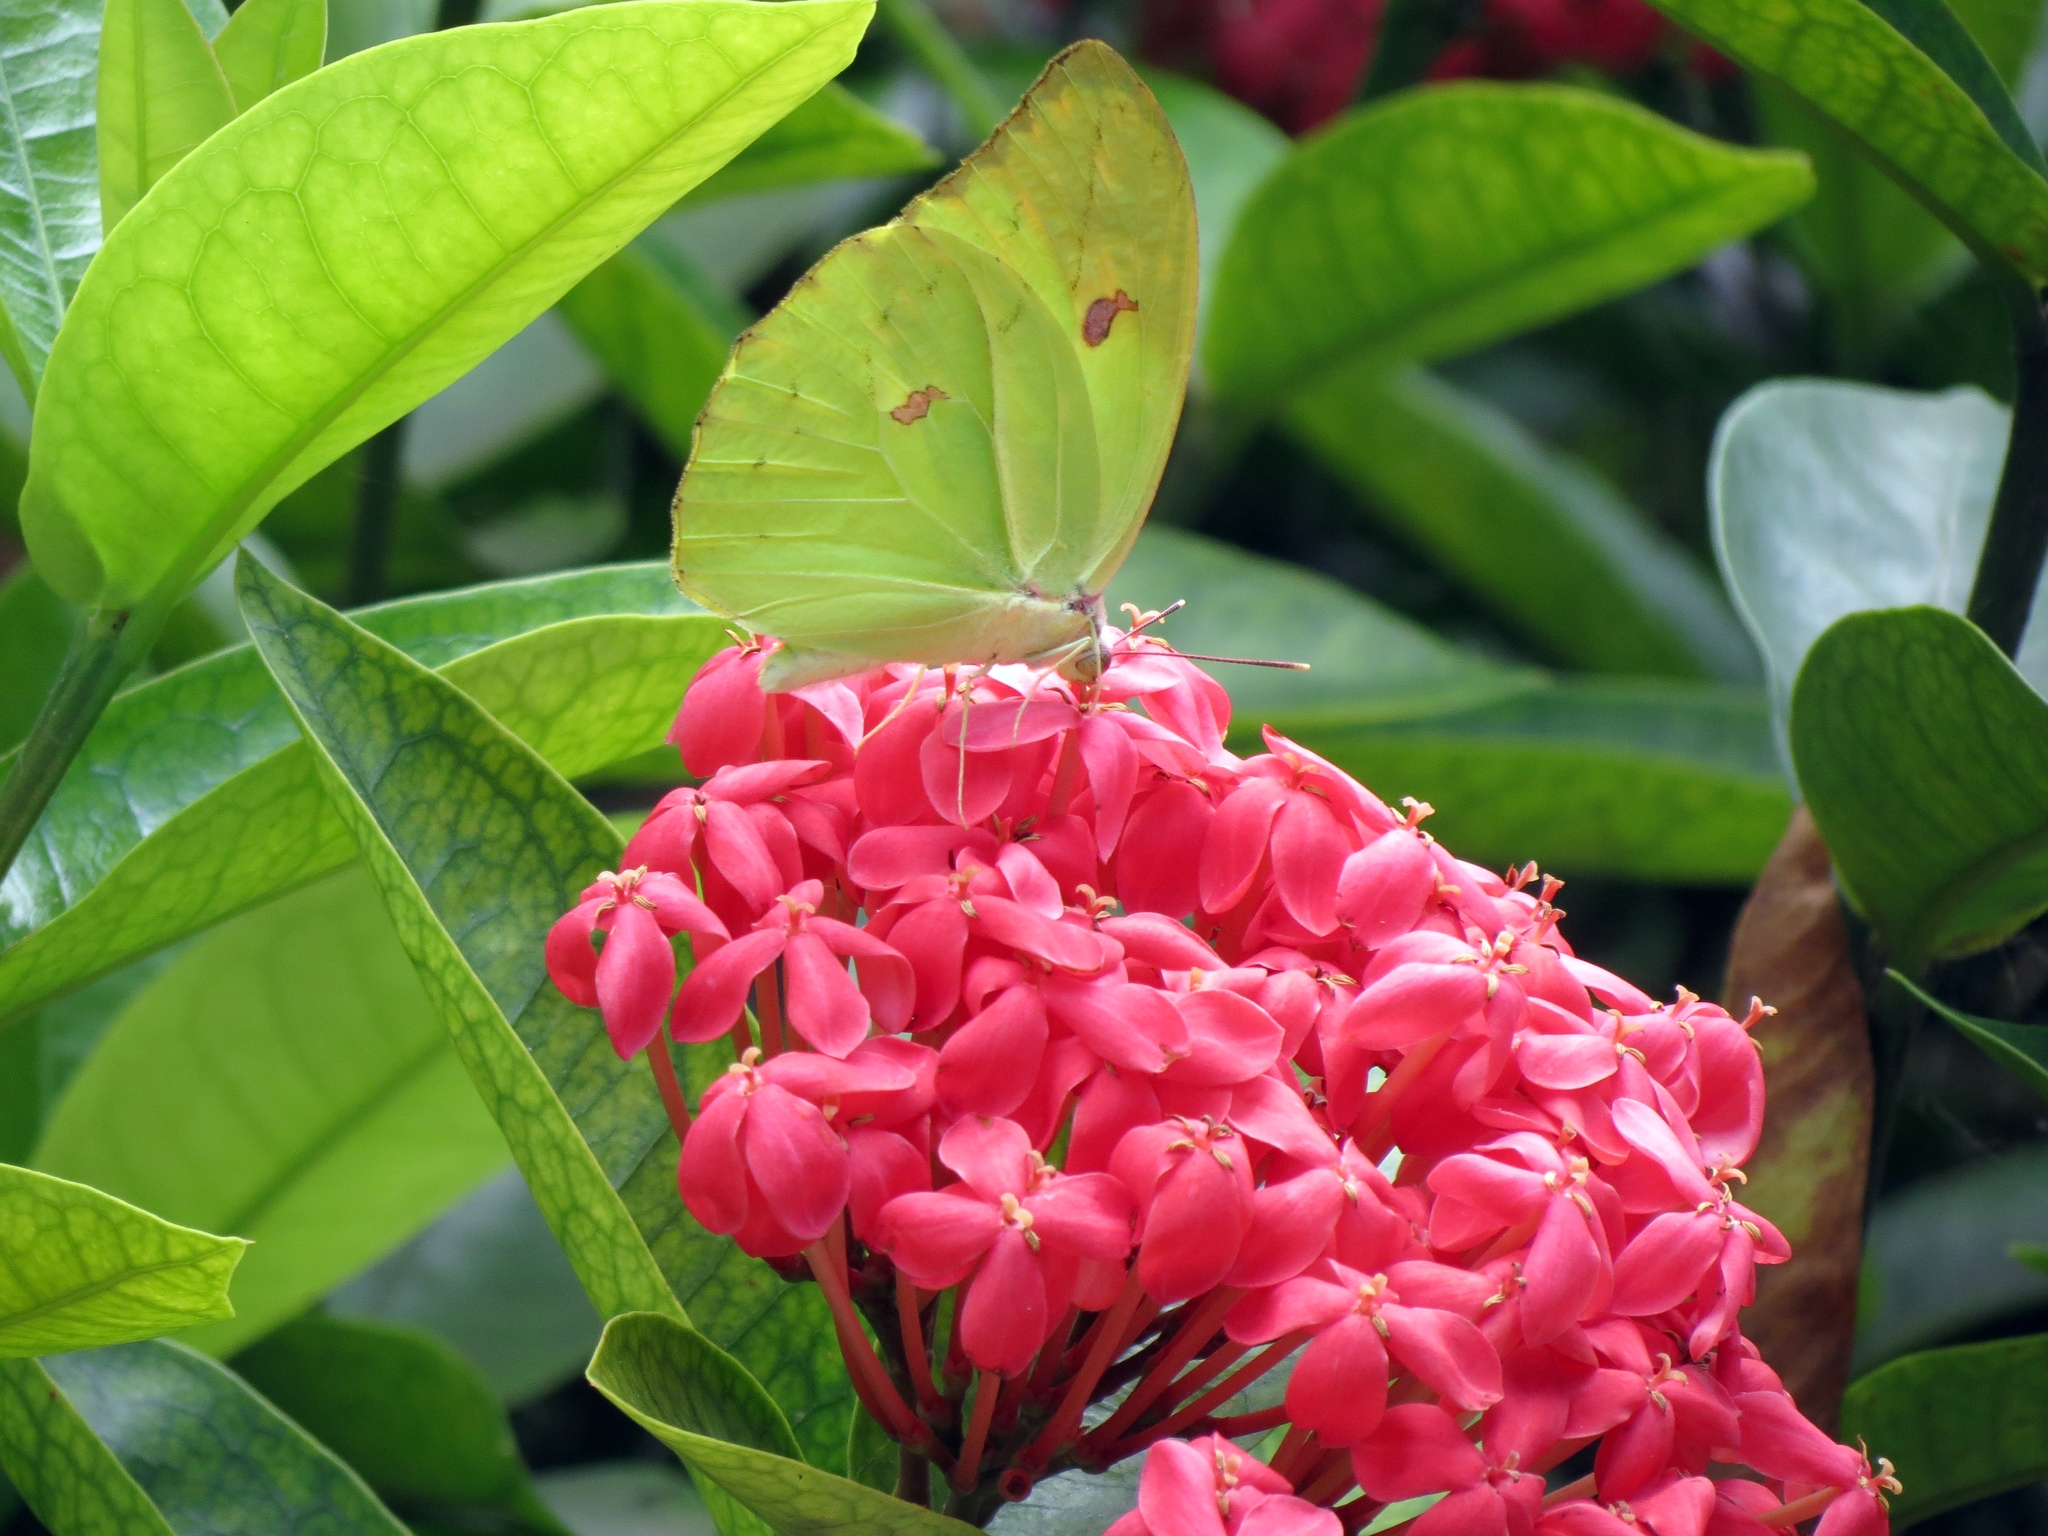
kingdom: Animalia
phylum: Arthropoda
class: Insecta
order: Lepidoptera
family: Pieridae
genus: Anteos
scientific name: Anteos menippe
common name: Orangetip angled-sulphur
